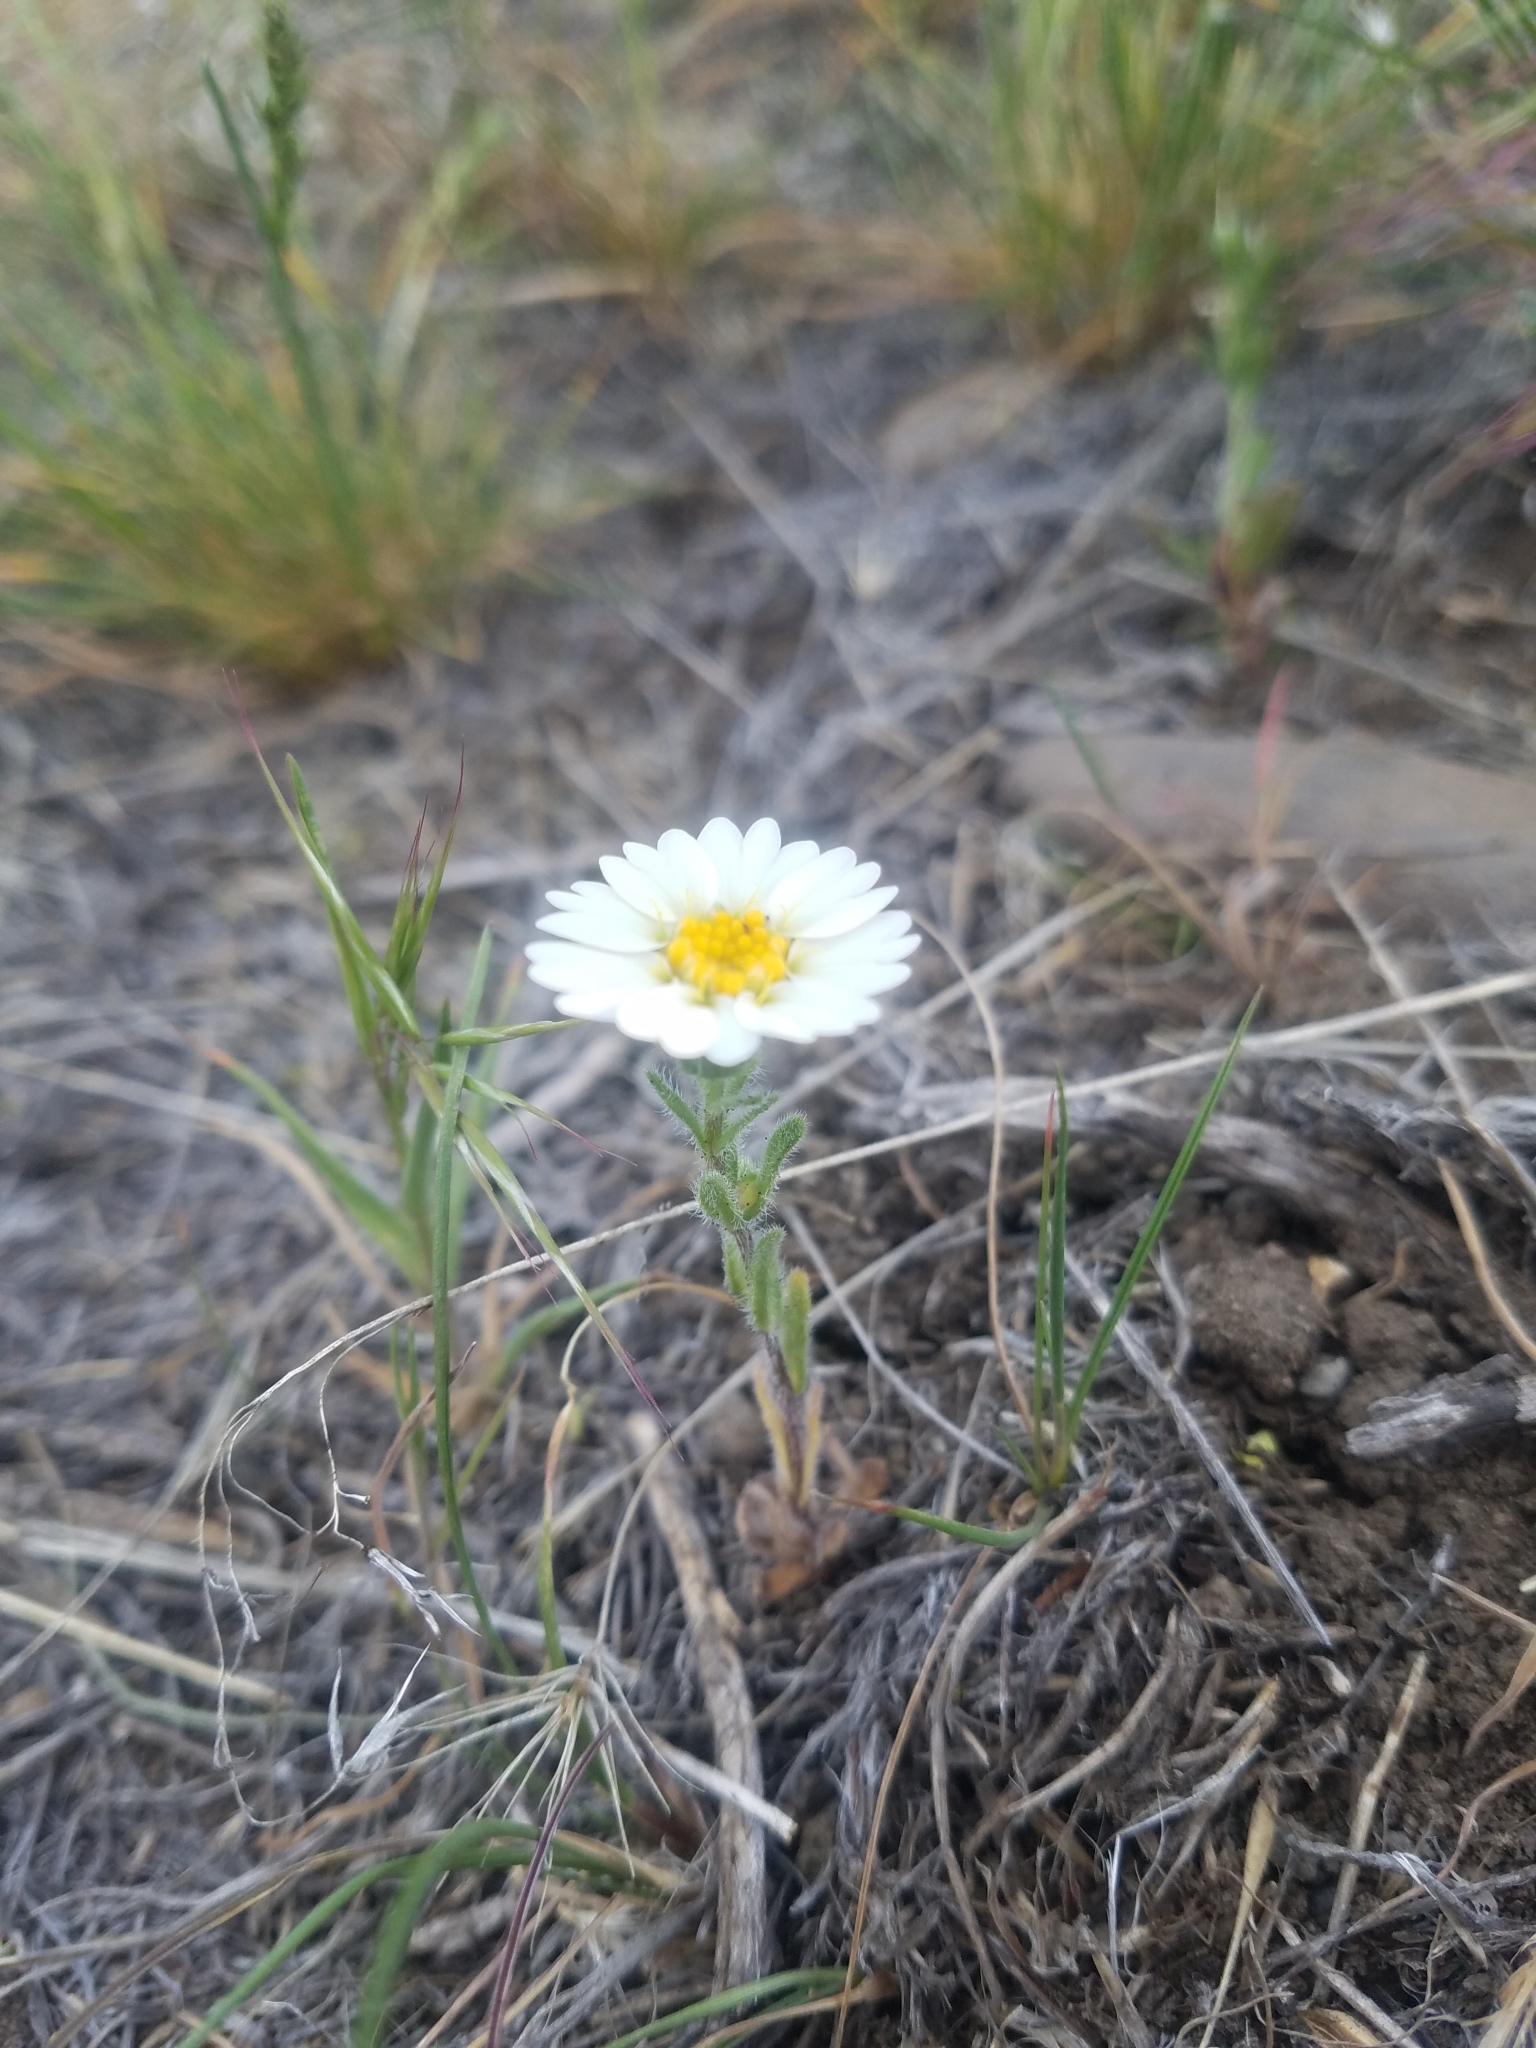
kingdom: Plantae
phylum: Tracheophyta
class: Magnoliopsida
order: Asterales
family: Asteraceae
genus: Layia
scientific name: Layia glandulosa
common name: White layia
